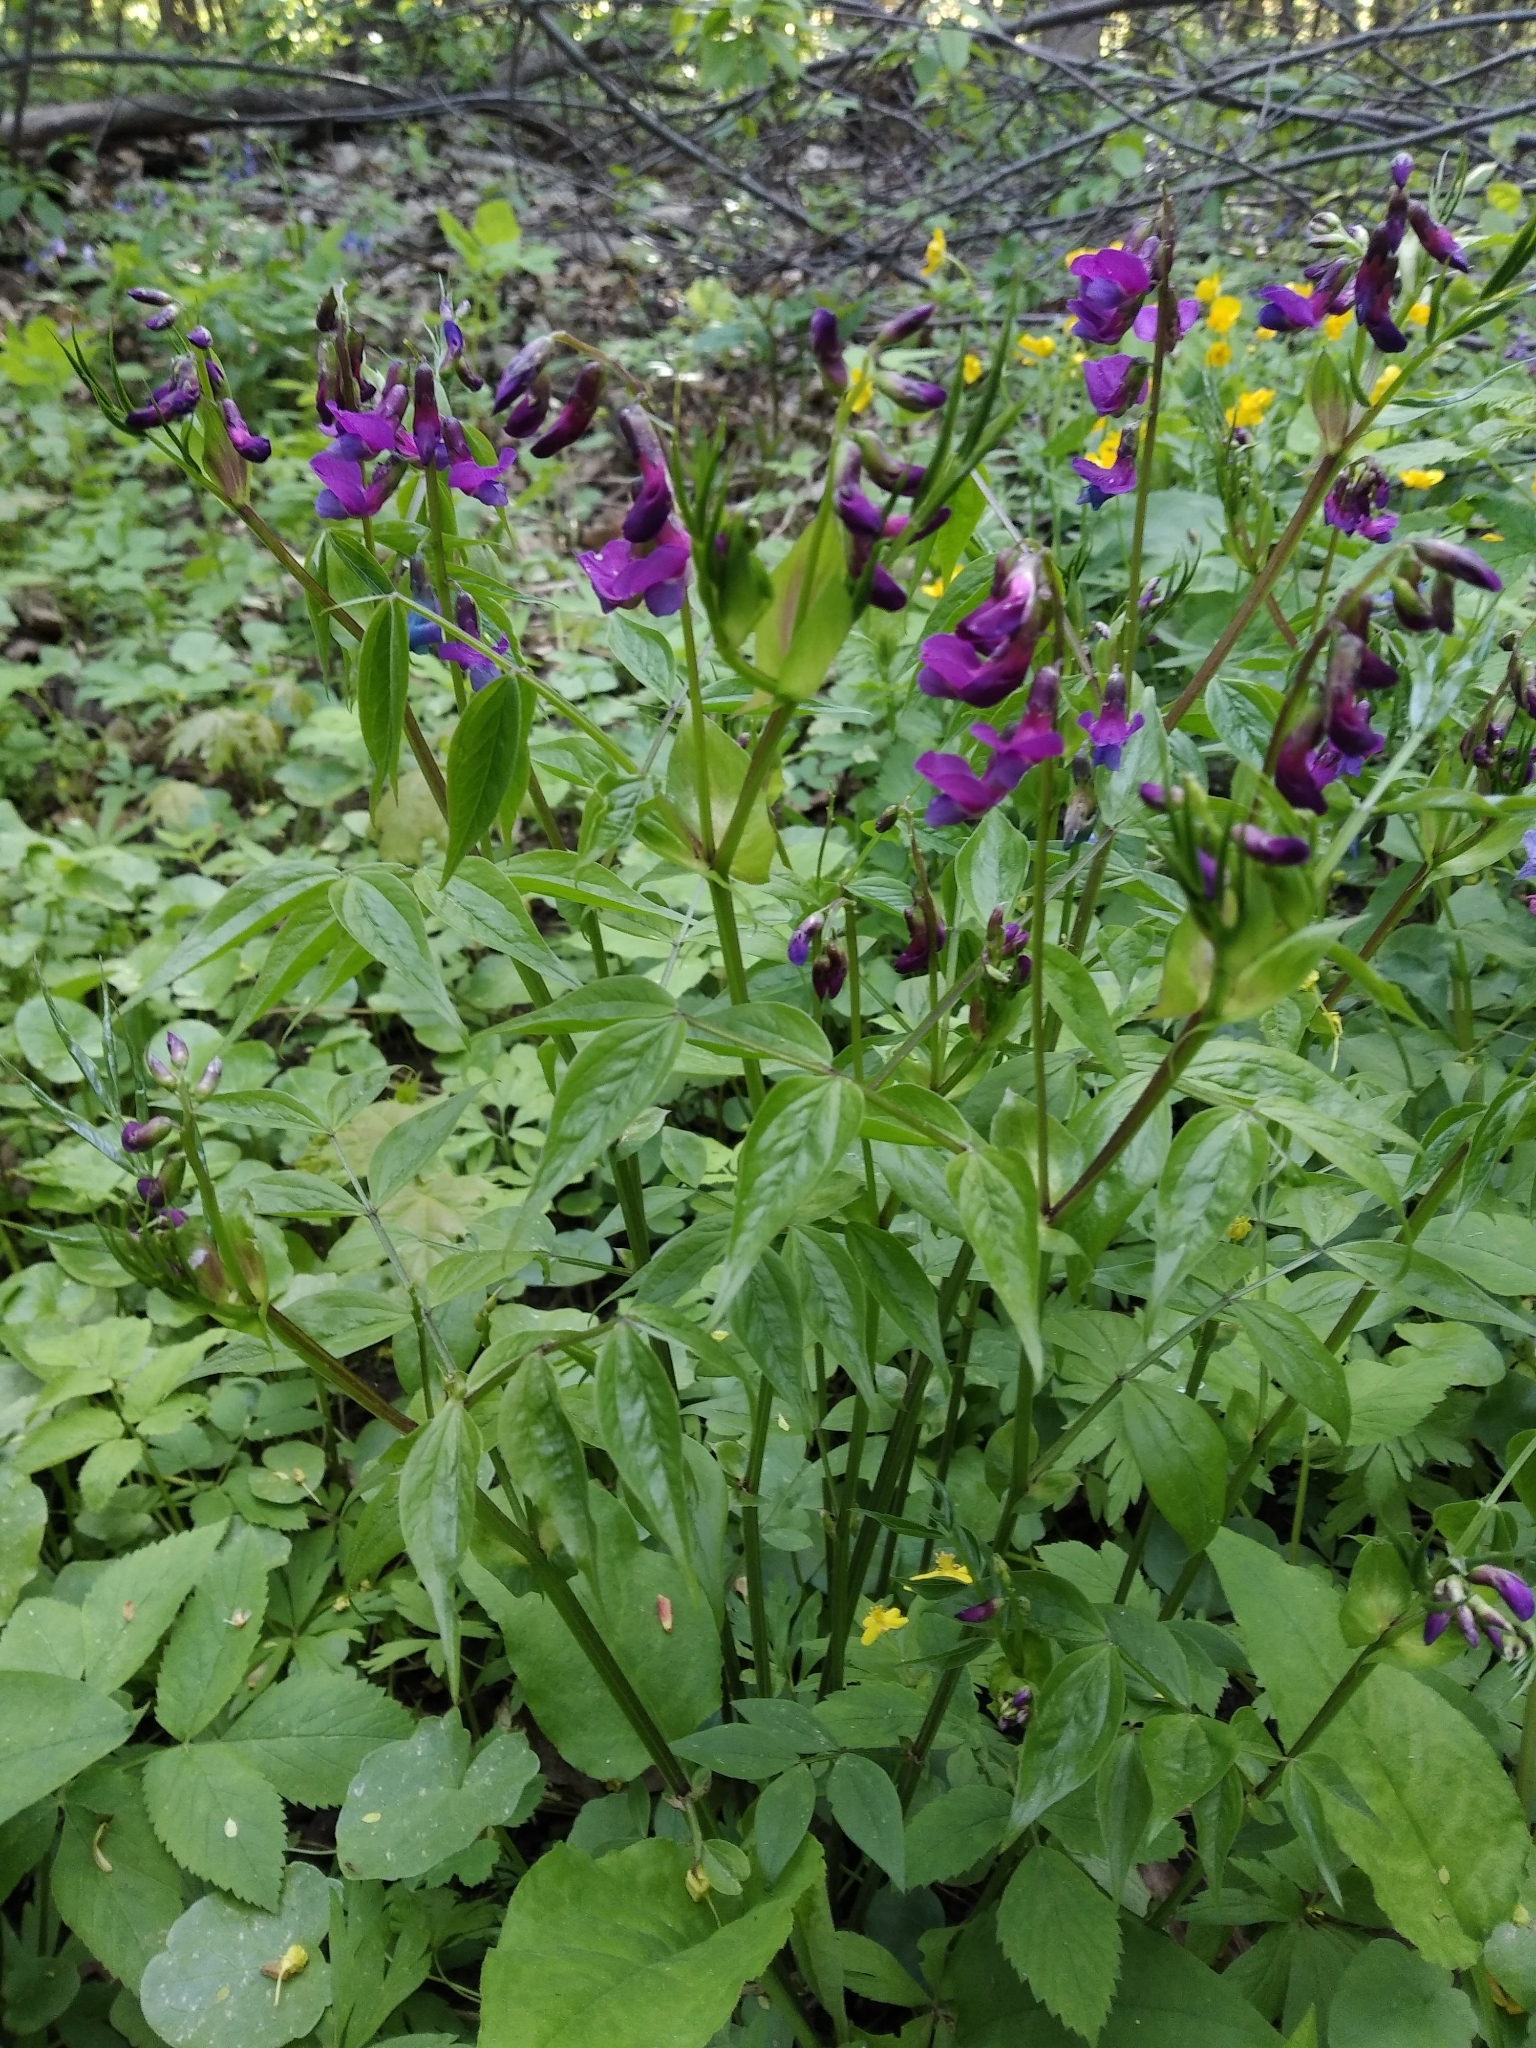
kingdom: Plantae
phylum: Tracheophyta
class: Magnoliopsida
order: Fabales
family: Fabaceae
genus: Lathyrus
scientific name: Lathyrus vernus
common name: Spring pea
